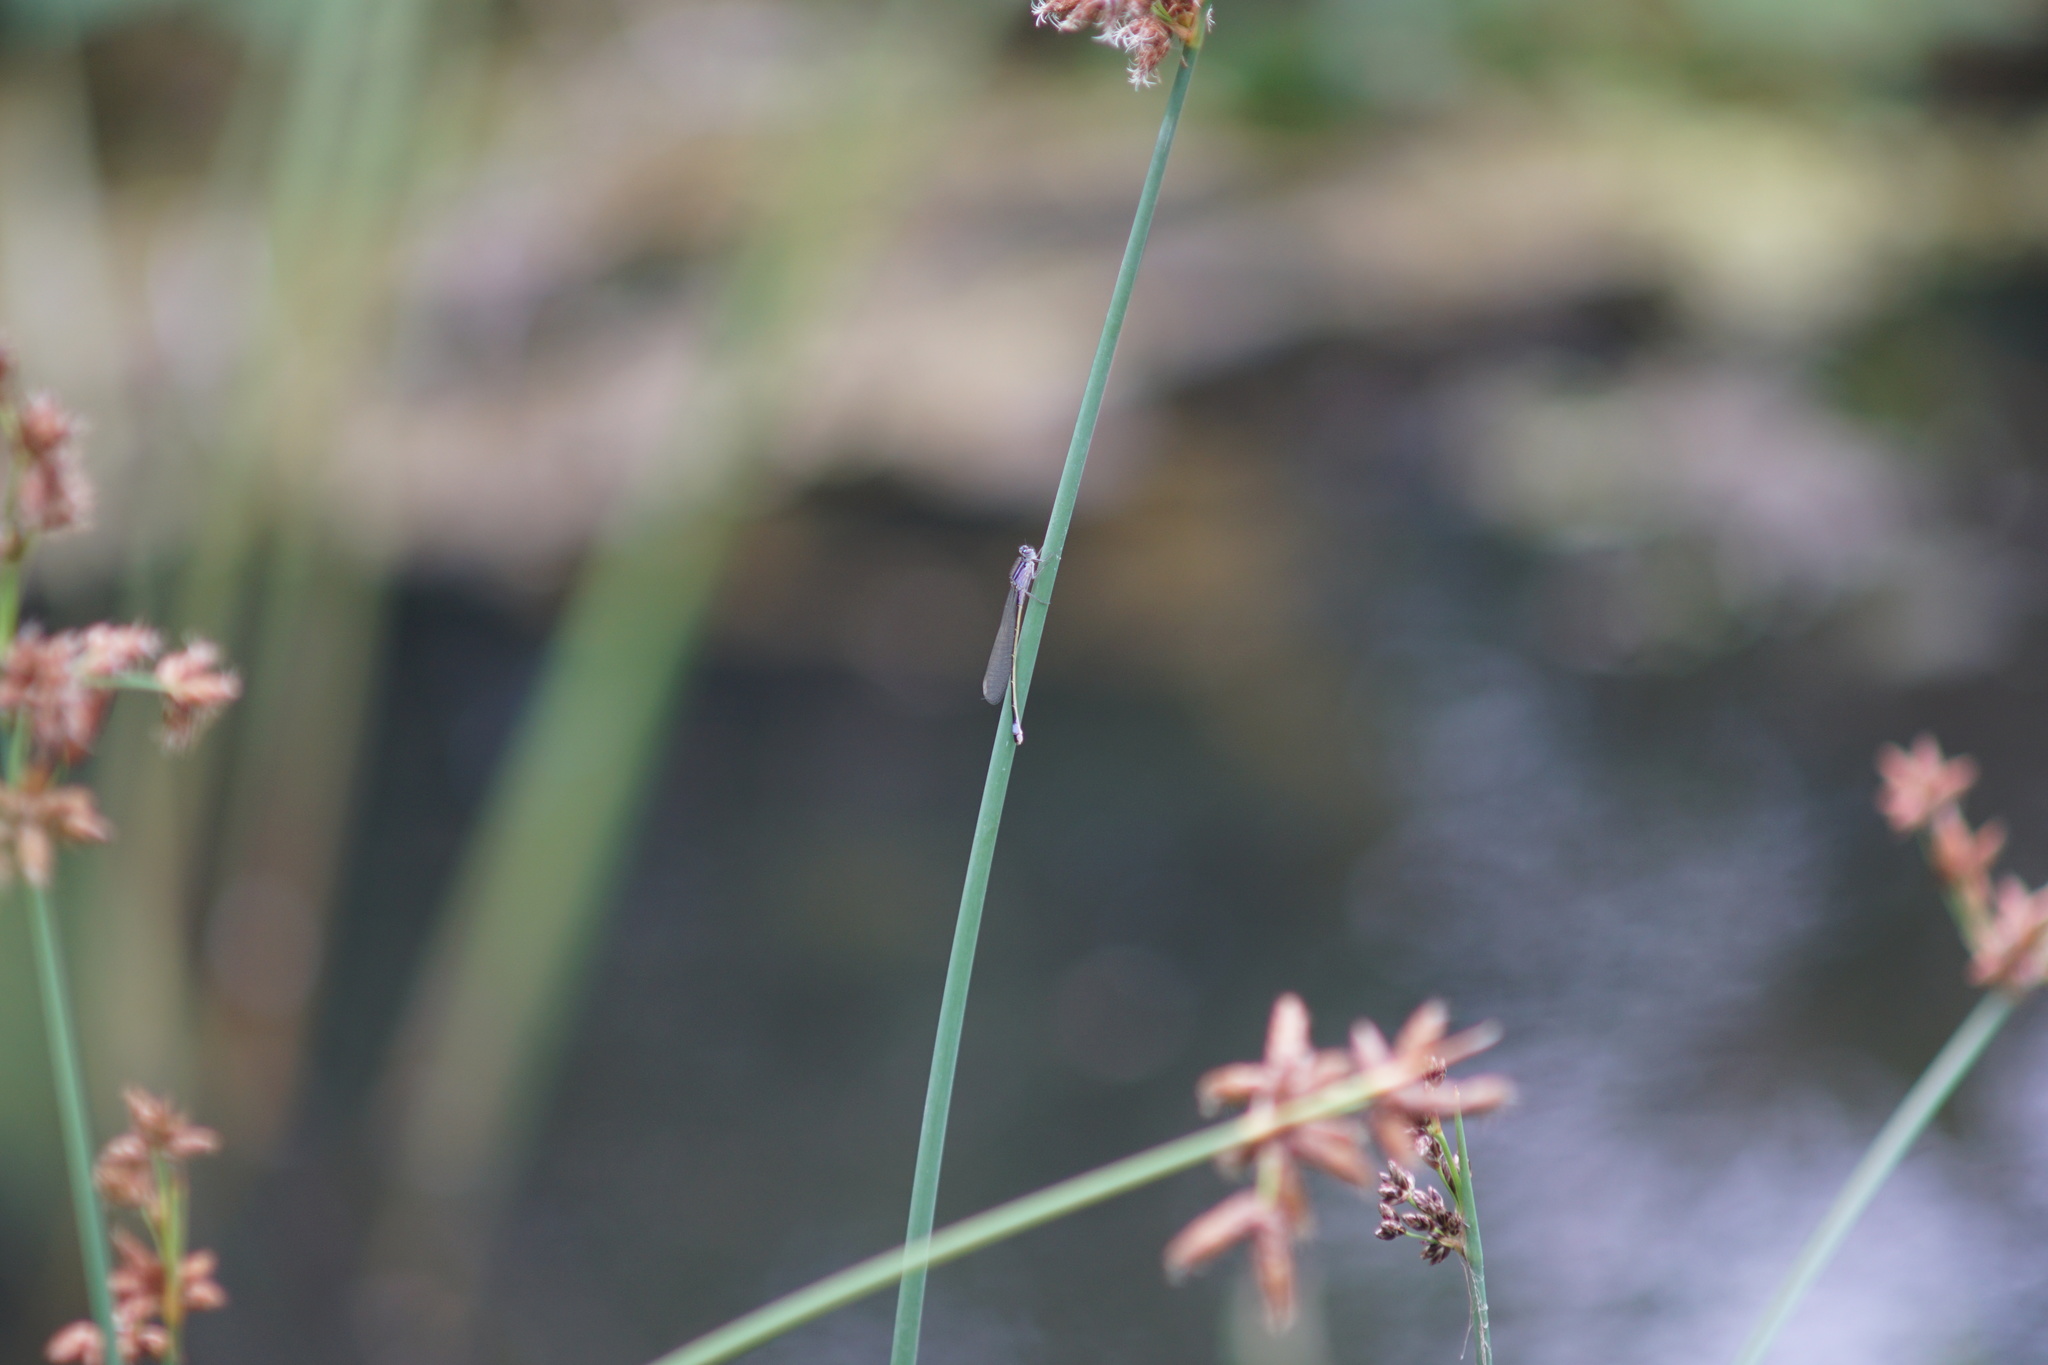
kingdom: Animalia
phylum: Arthropoda
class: Insecta
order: Odonata
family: Coenagrionidae
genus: Ischnura
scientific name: Ischnura elegans
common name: Blue-tailed damselfly
